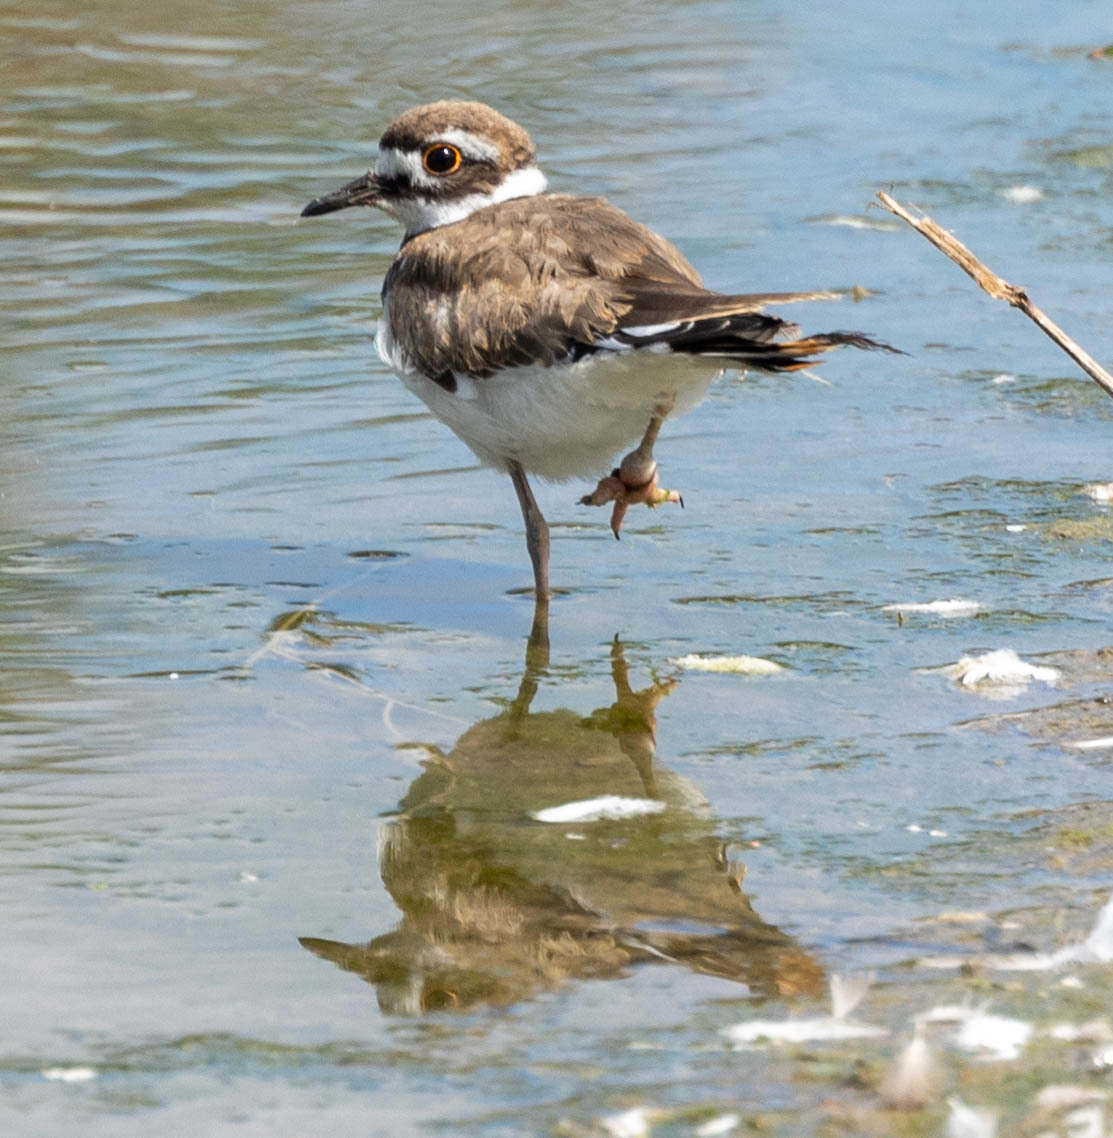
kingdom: Animalia
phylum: Chordata
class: Aves
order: Charadriiformes
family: Charadriidae
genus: Charadrius
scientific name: Charadrius vociferus
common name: Killdeer
